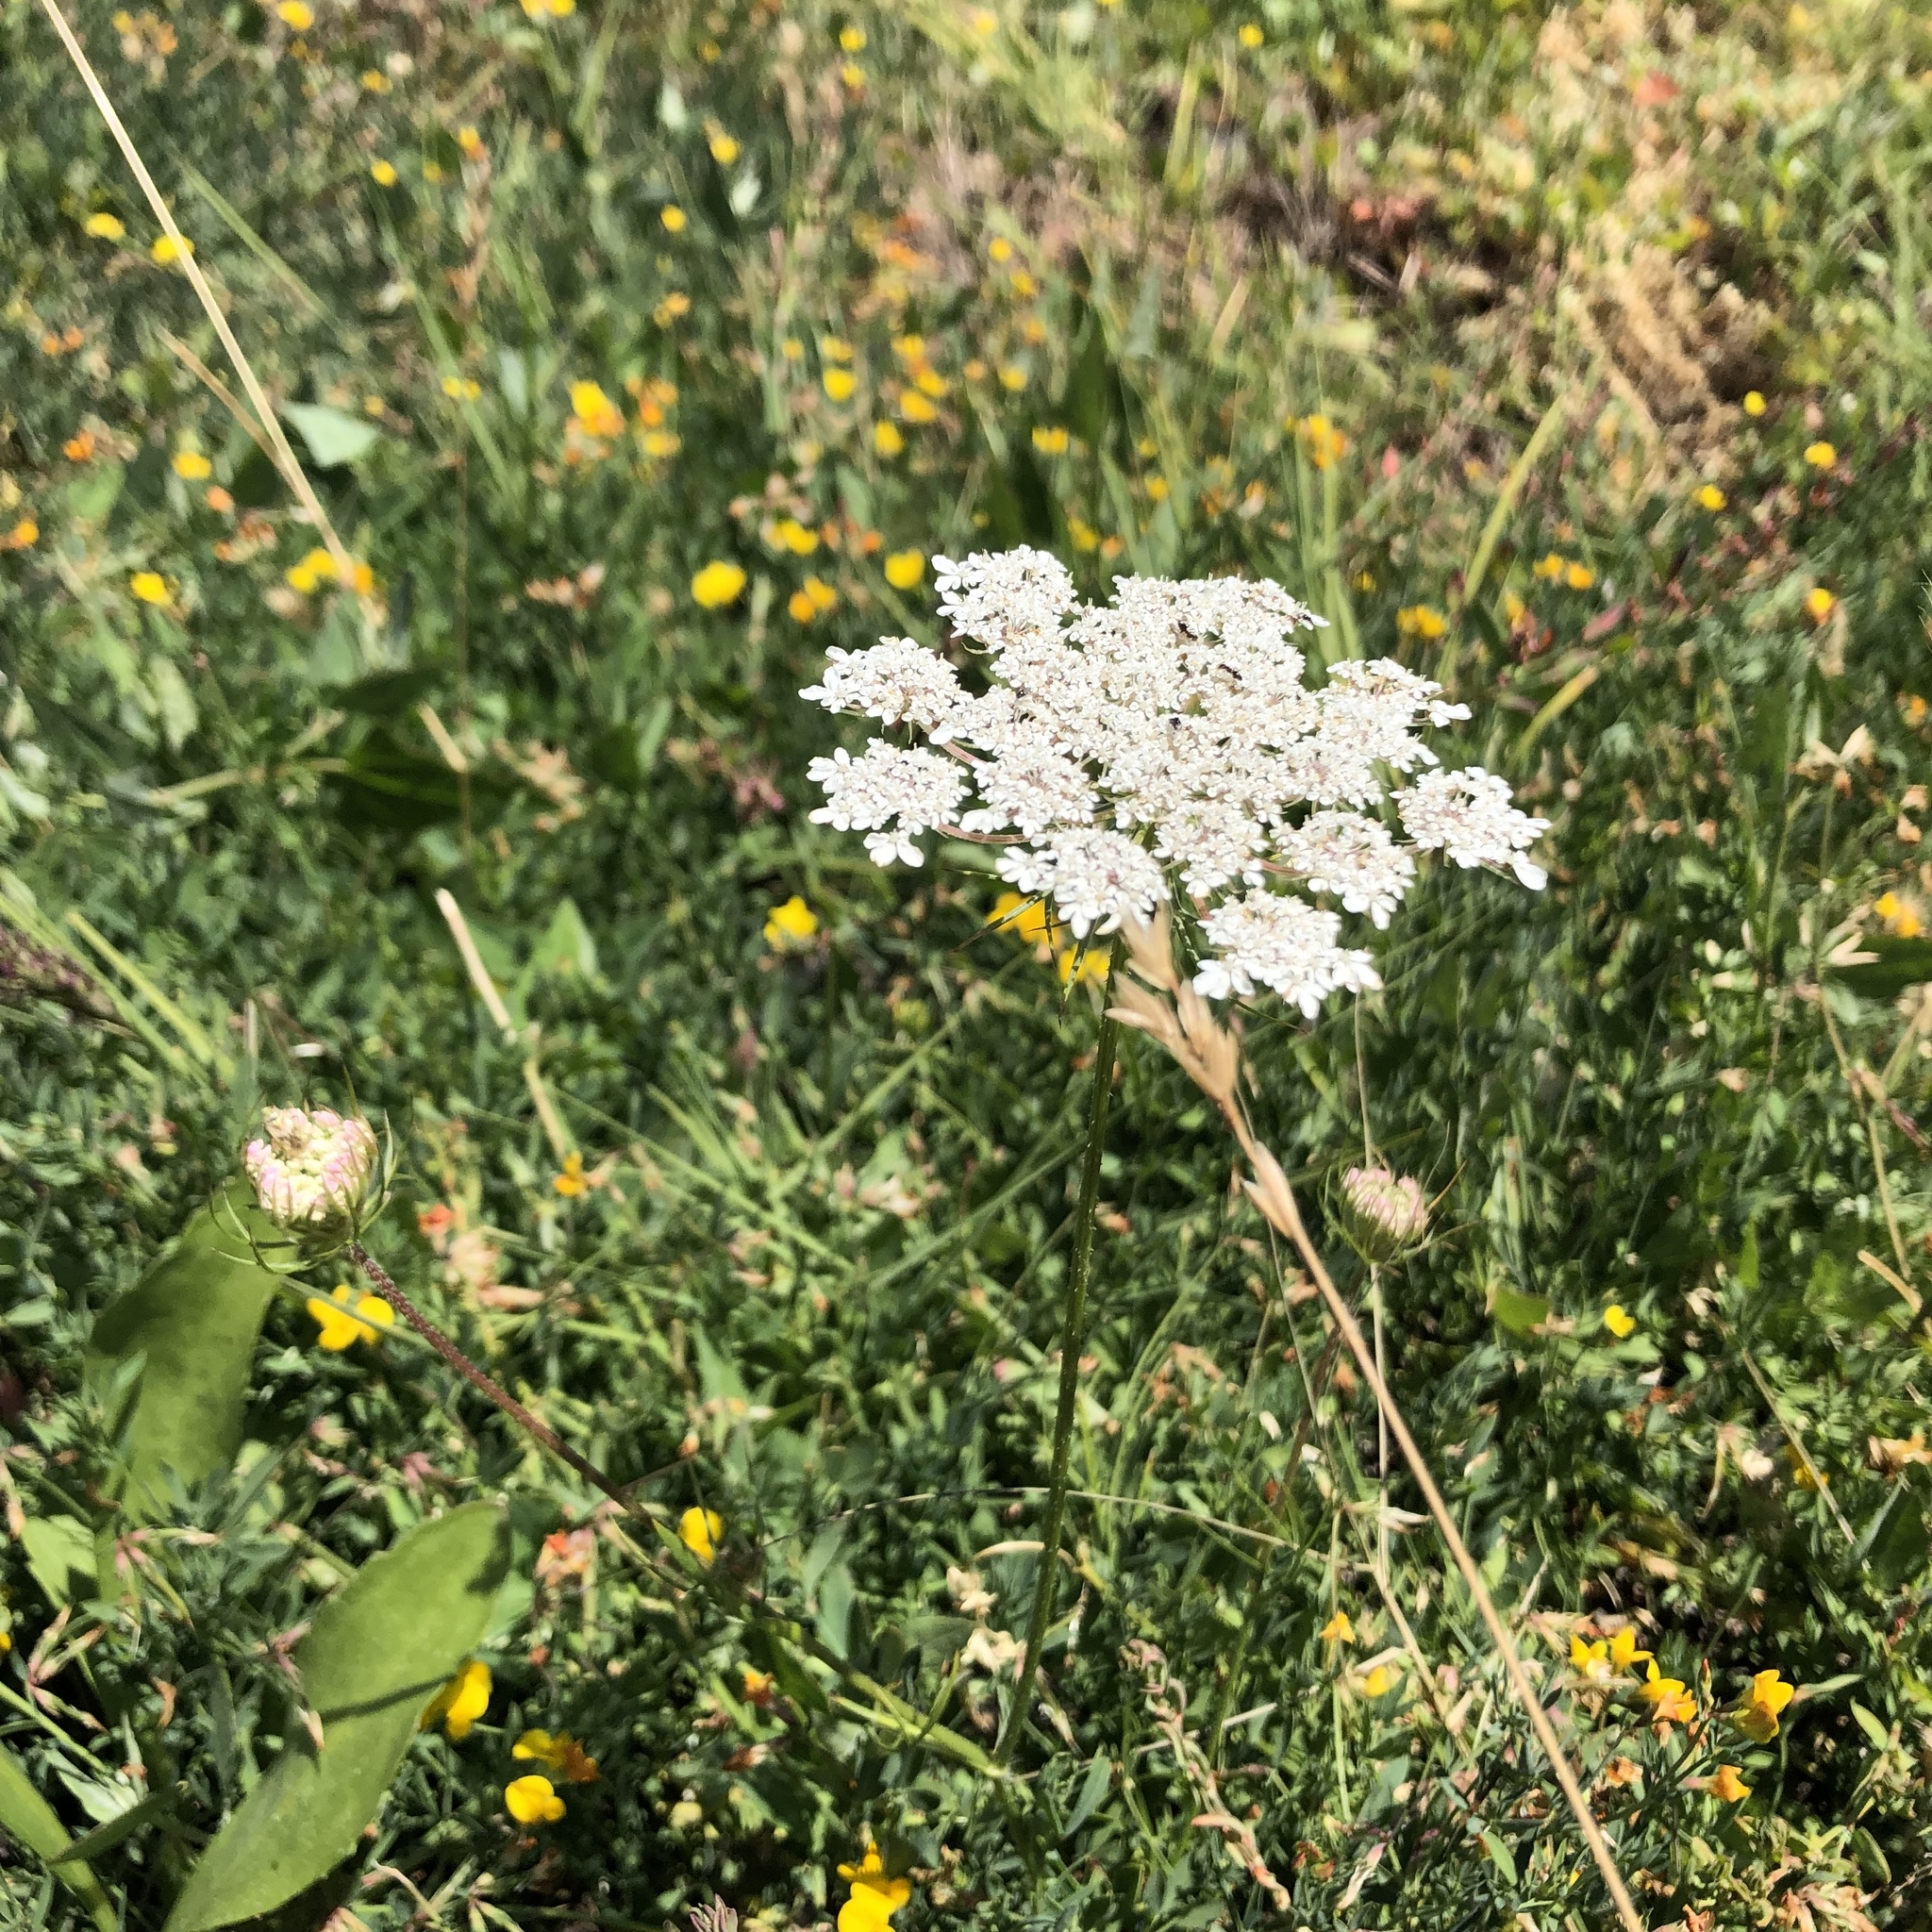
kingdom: Plantae
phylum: Tracheophyta
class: Magnoliopsida
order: Apiales
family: Apiaceae
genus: Daucus
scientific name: Daucus carota
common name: Wild carrot
